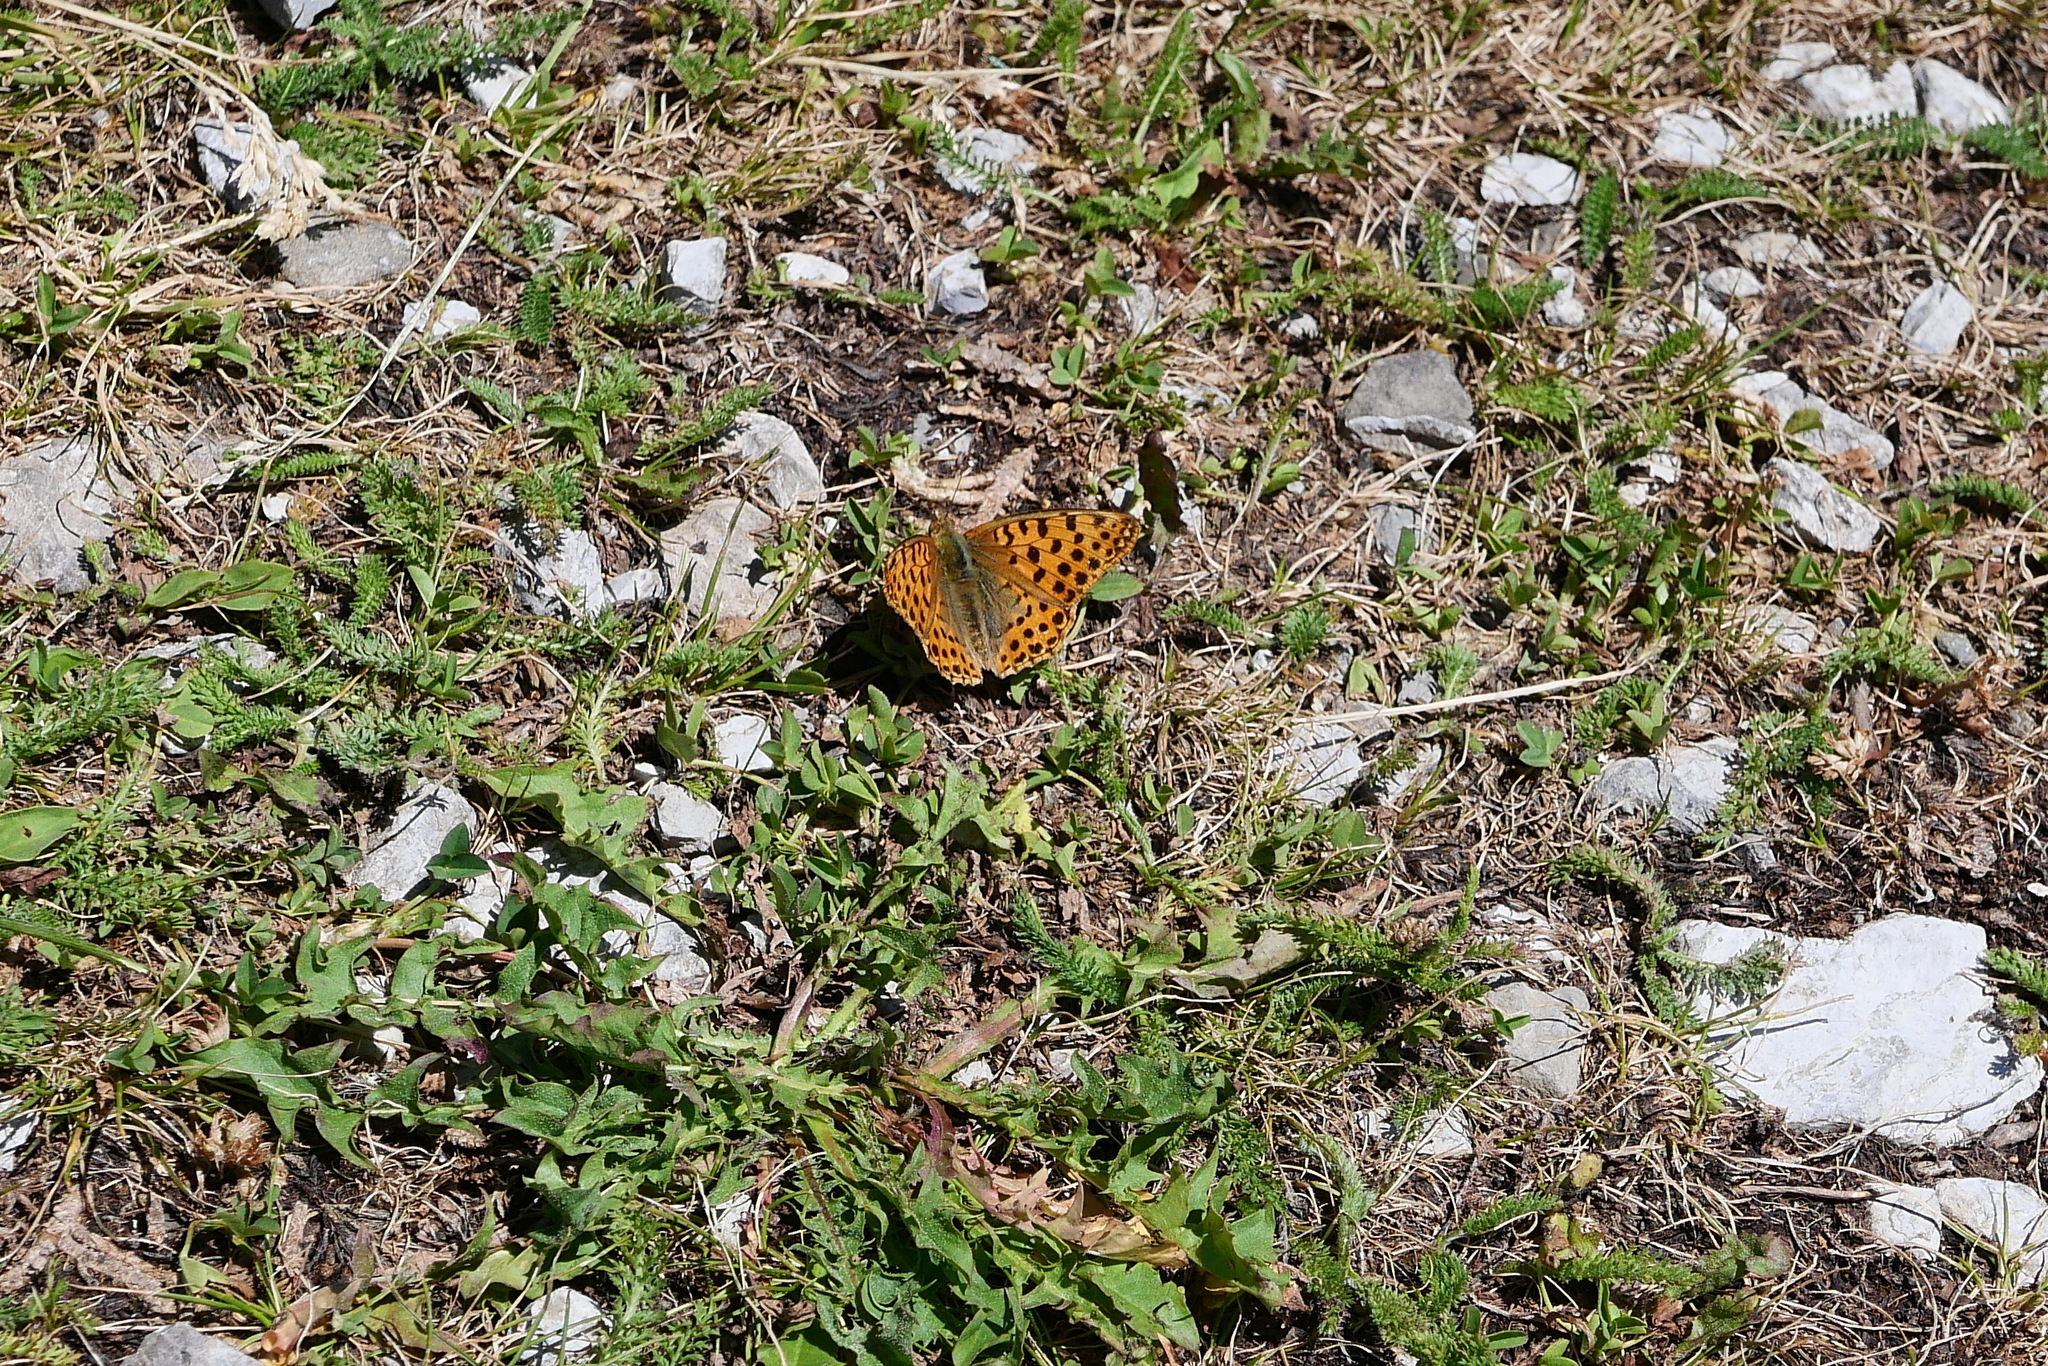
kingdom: Animalia
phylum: Arthropoda
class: Insecta
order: Lepidoptera
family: Nymphalidae
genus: Issoria
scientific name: Issoria lathonia
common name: Queen of spain fritillary
